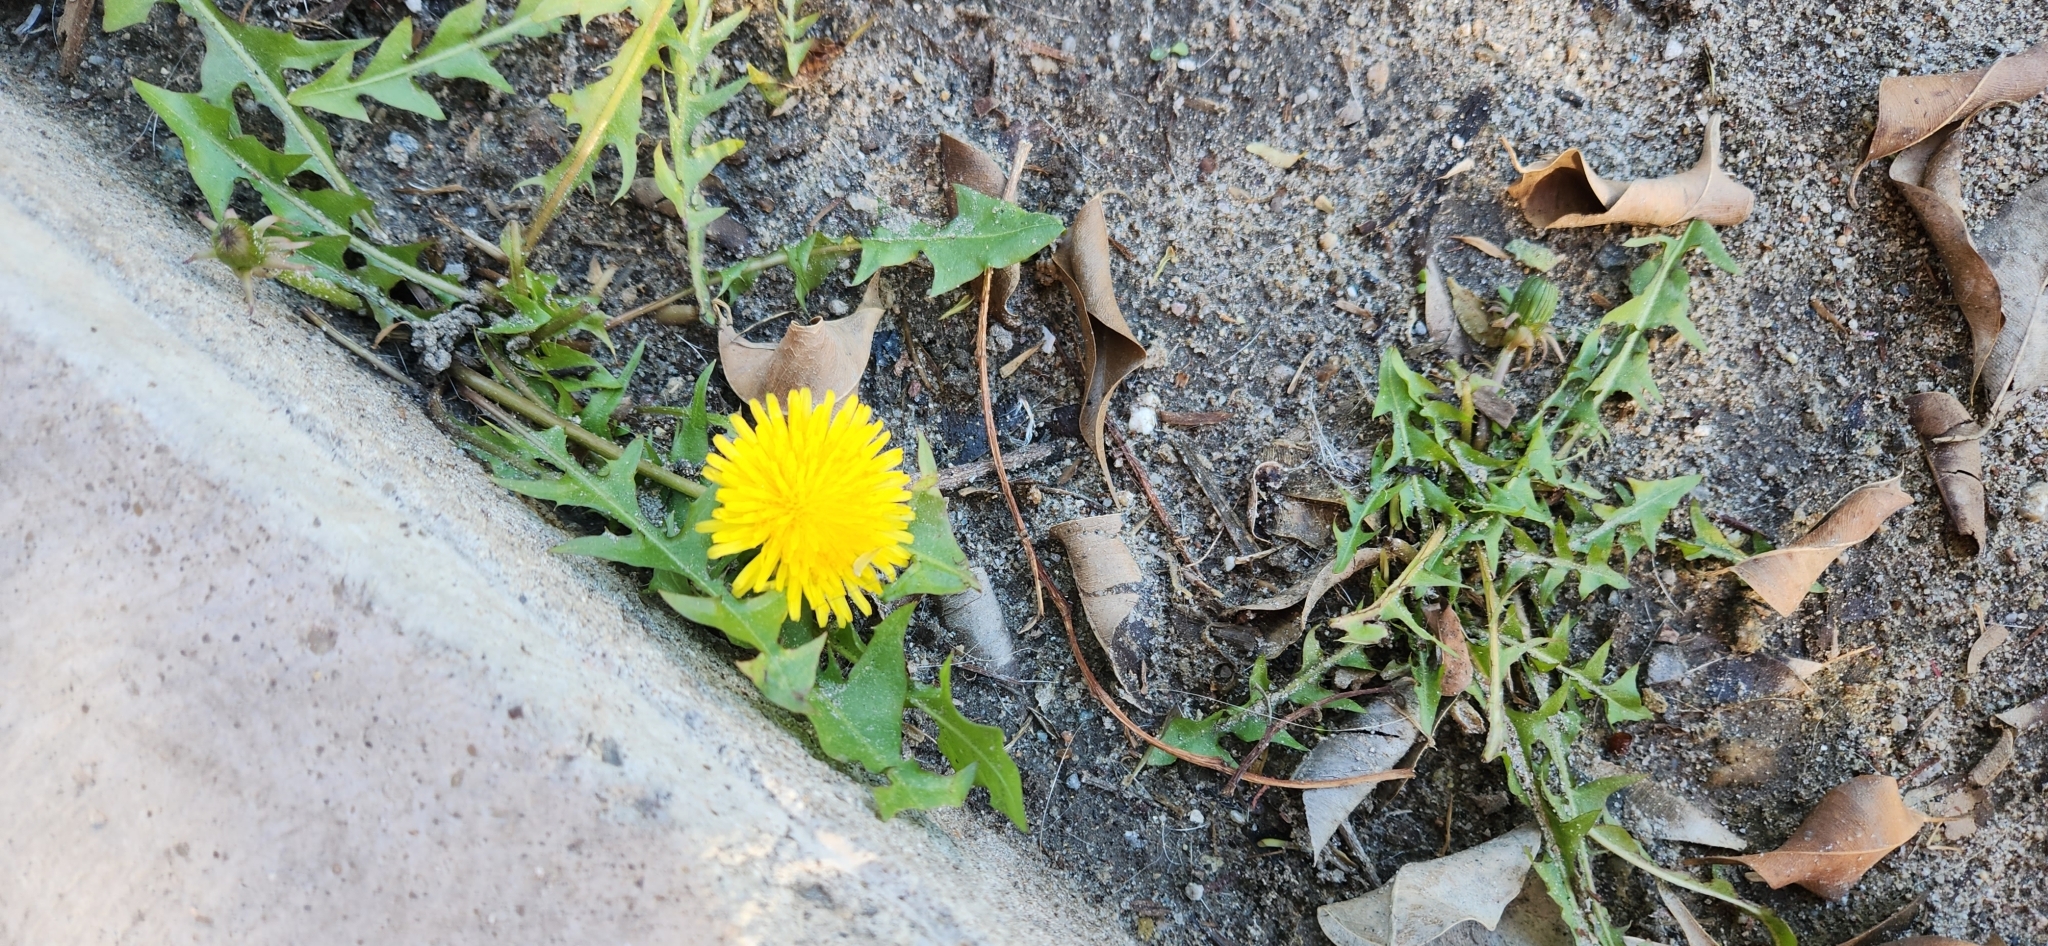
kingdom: Plantae
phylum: Tracheophyta
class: Magnoliopsida
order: Asterales
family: Asteraceae
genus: Taraxacum
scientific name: Taraxacum
